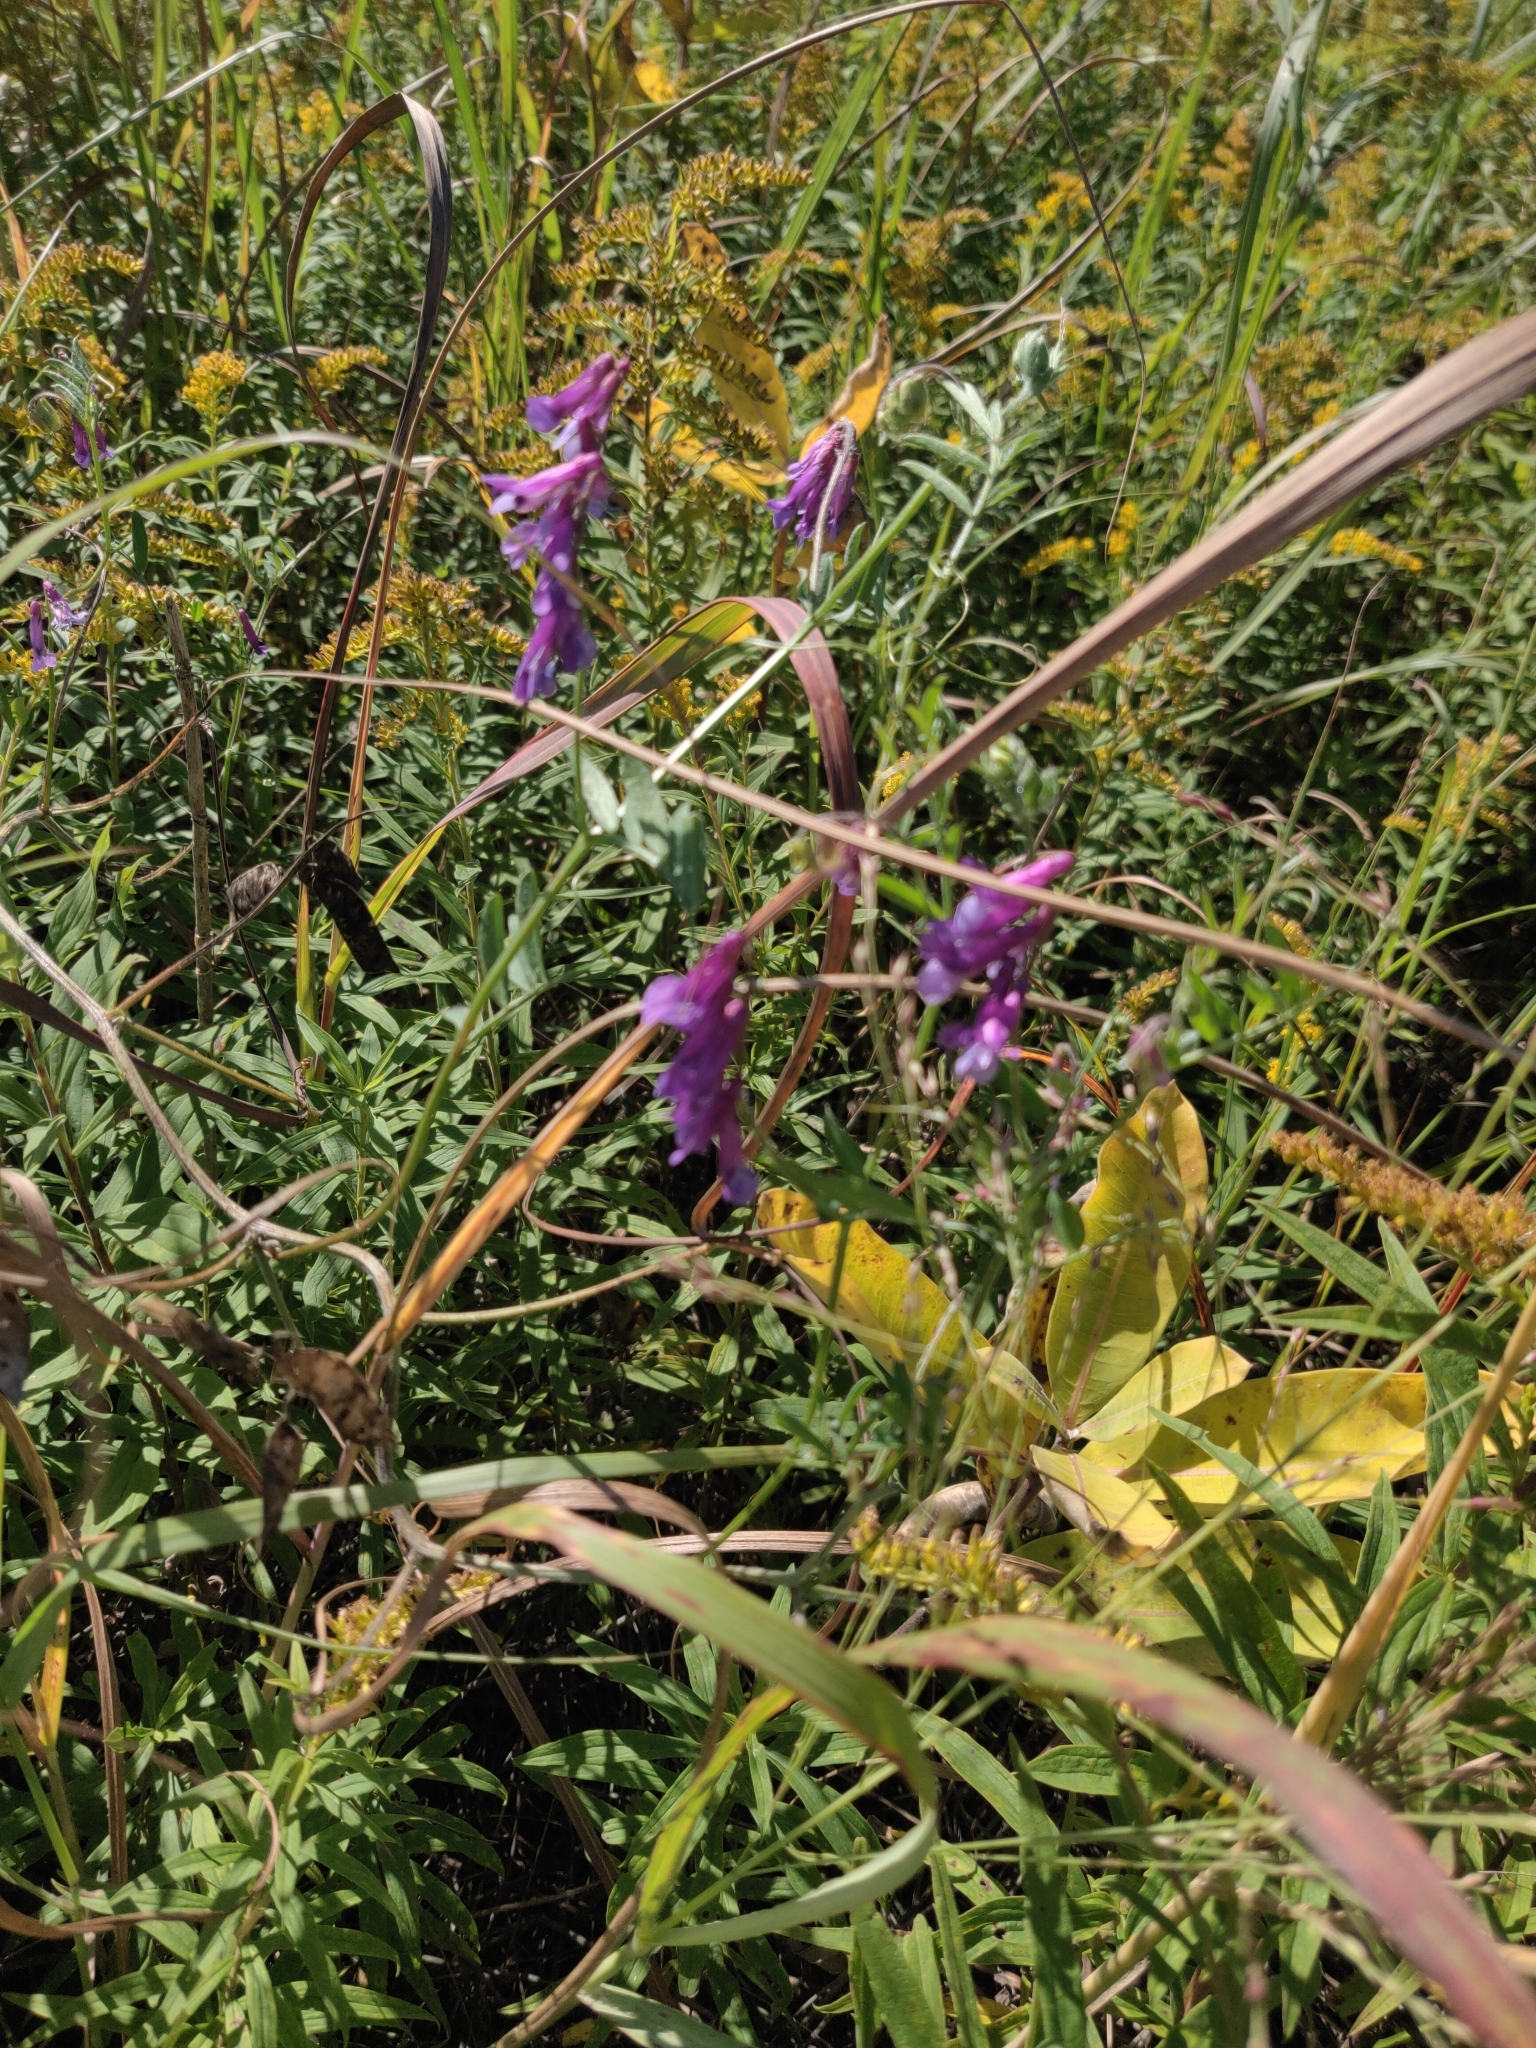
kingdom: Plantae
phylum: Tracheophyta
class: Magnoliopsida
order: Fabales
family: Fabaceae
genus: Vicia
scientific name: Vicia villosa
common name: Fodder vetch
